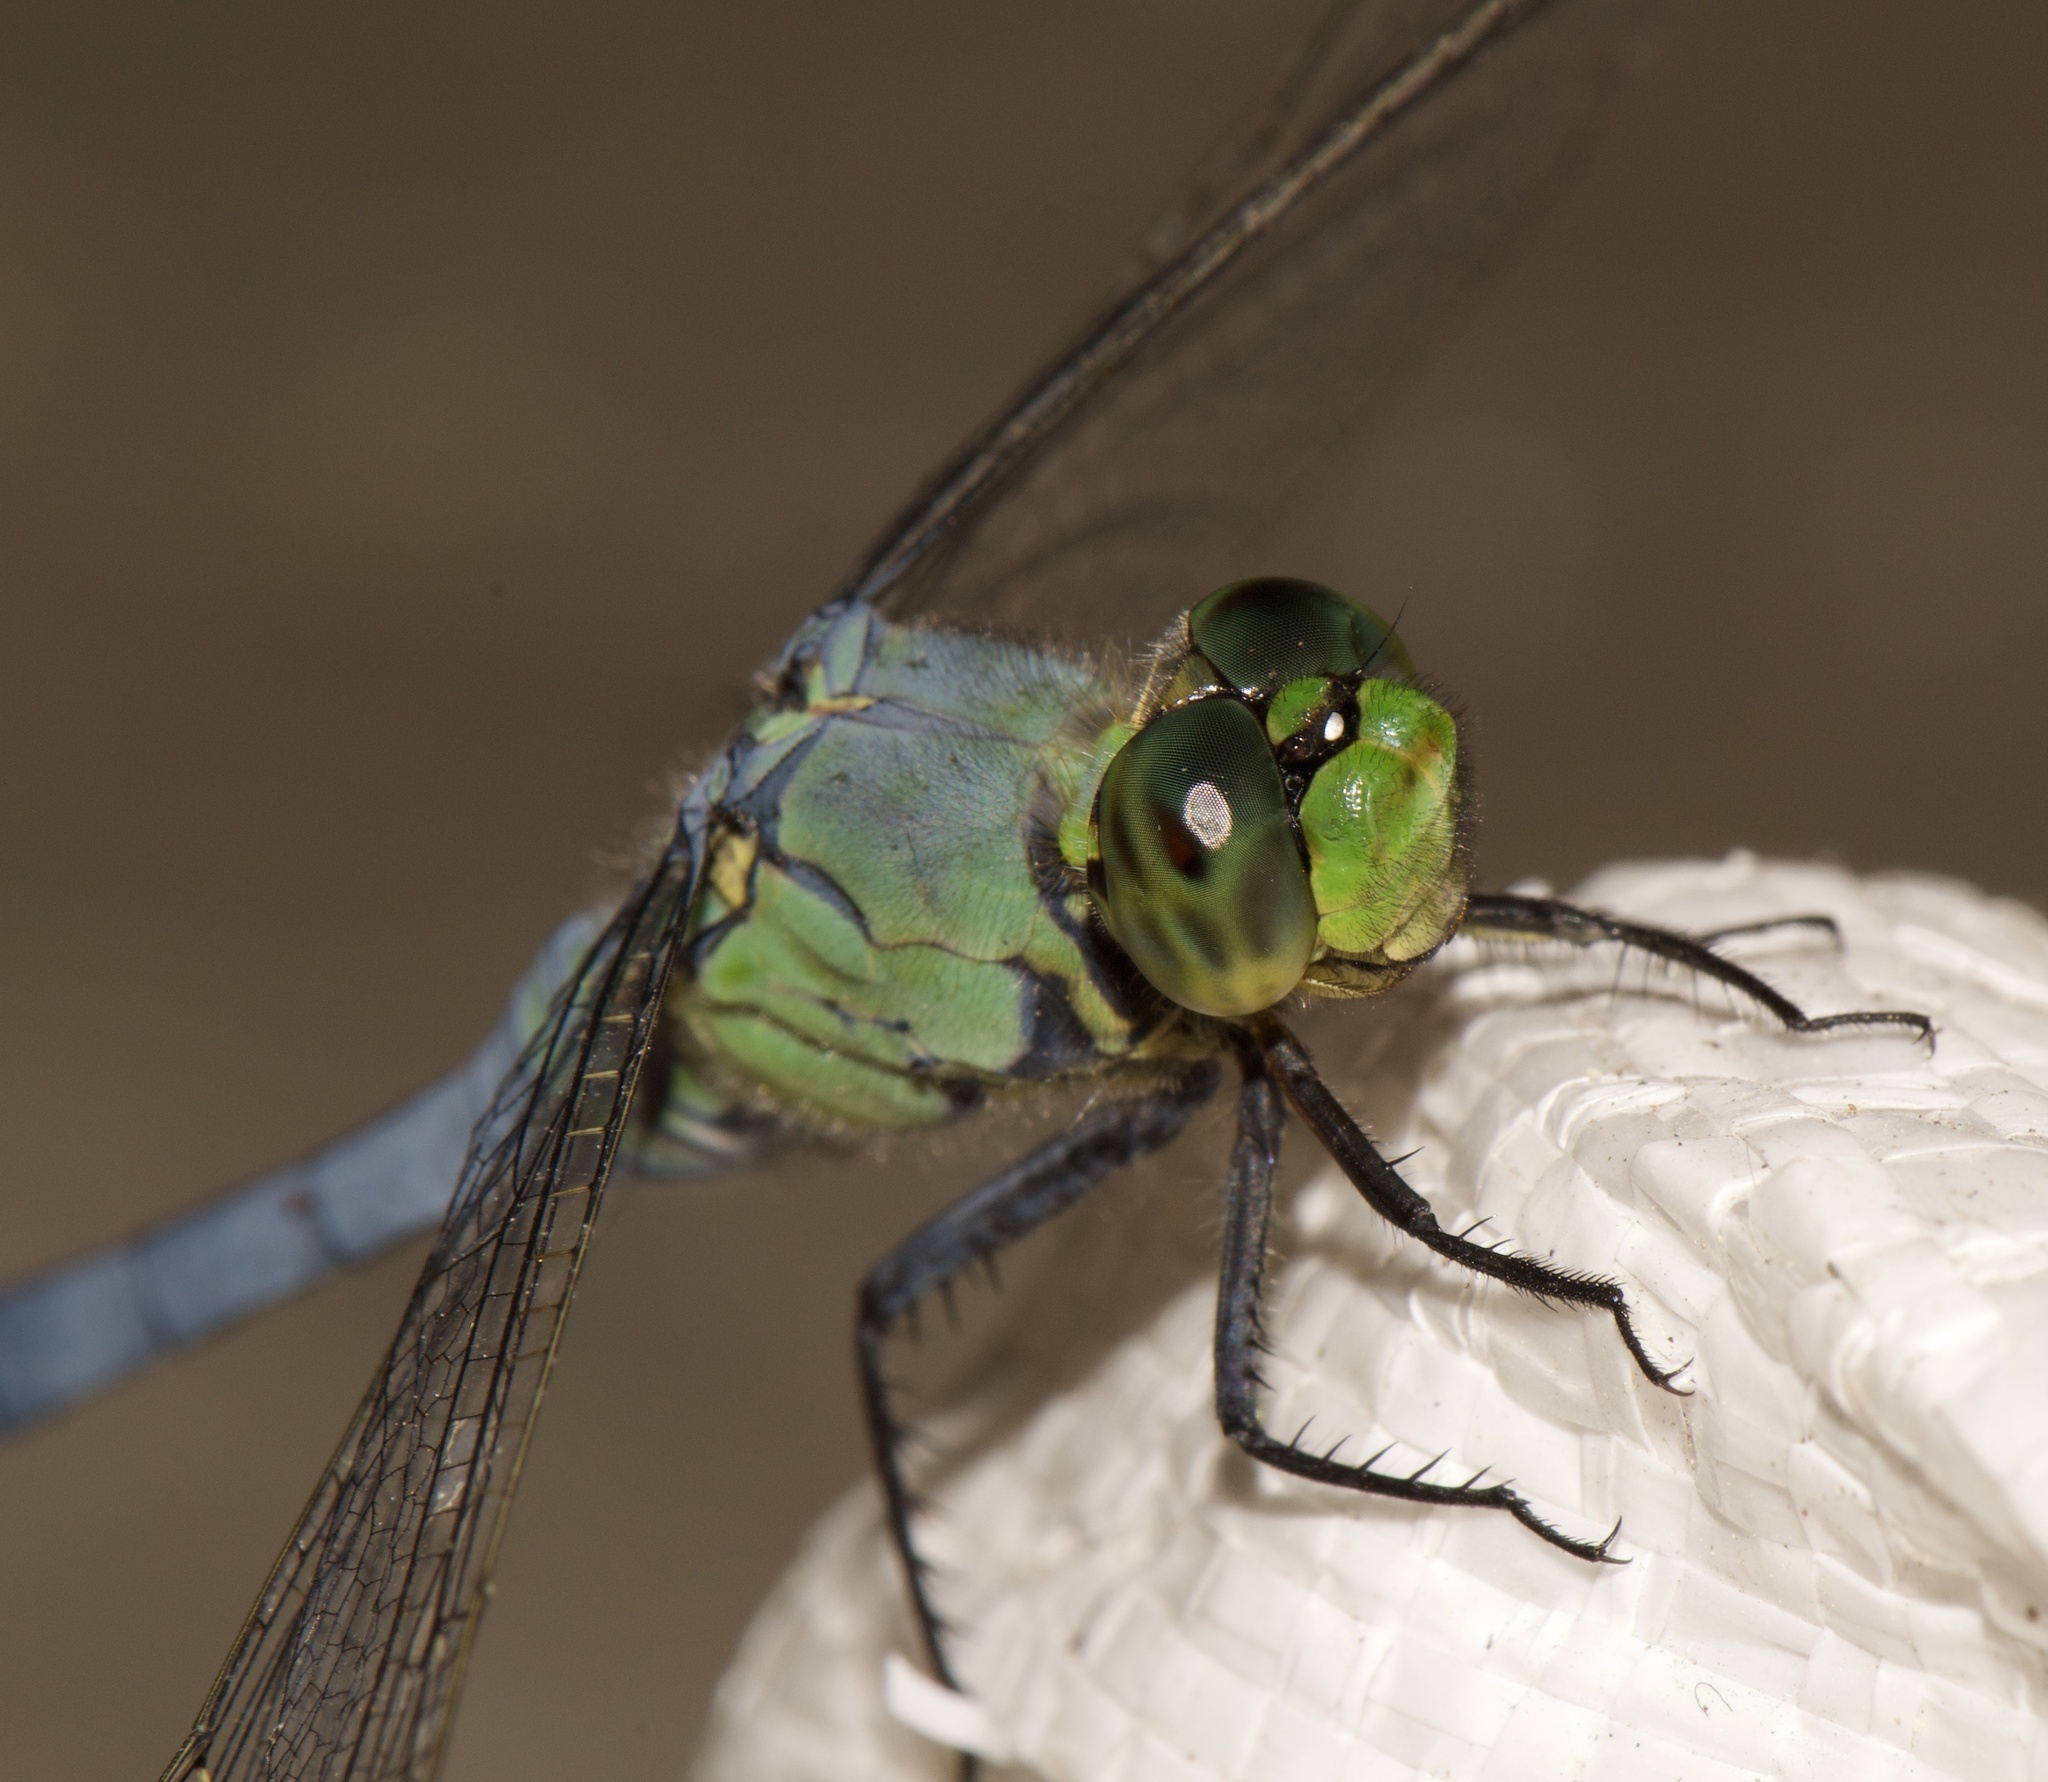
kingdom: Animalia
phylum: Arthropoda
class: Insecta
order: Odonata
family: Libellulidae
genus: Erythemis
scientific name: Erythemis simplicicollis
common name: Eastern pondhawk
